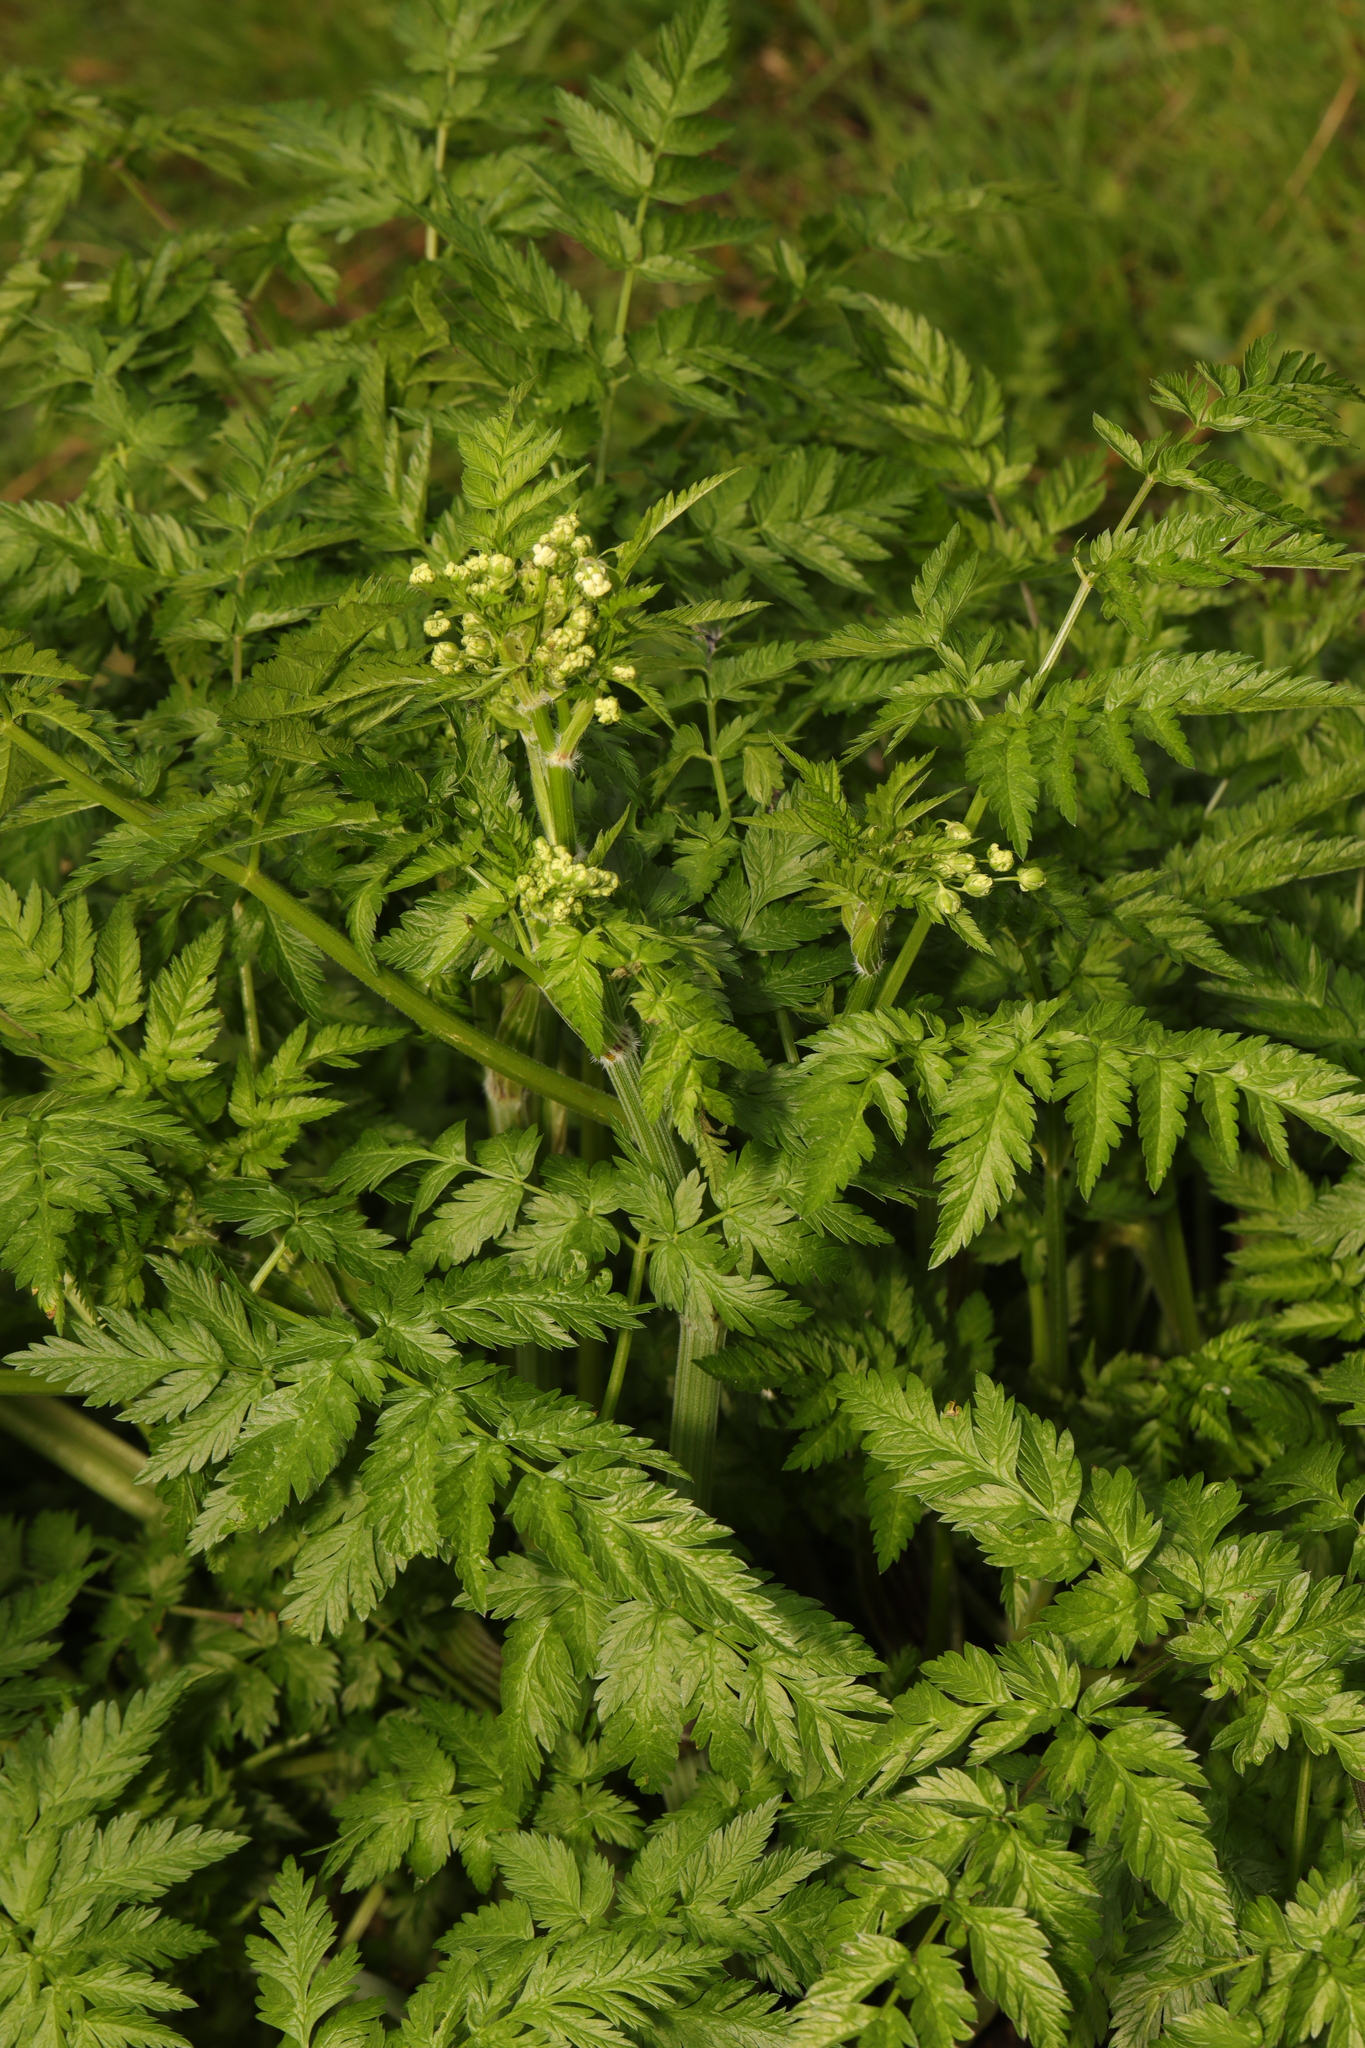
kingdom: Plantae
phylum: Tracheophyta
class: Magnoliopsida
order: Apiales
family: Apiaceae
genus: Anthriscus
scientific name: Anthriscus sylvestris
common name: Cow parsley
